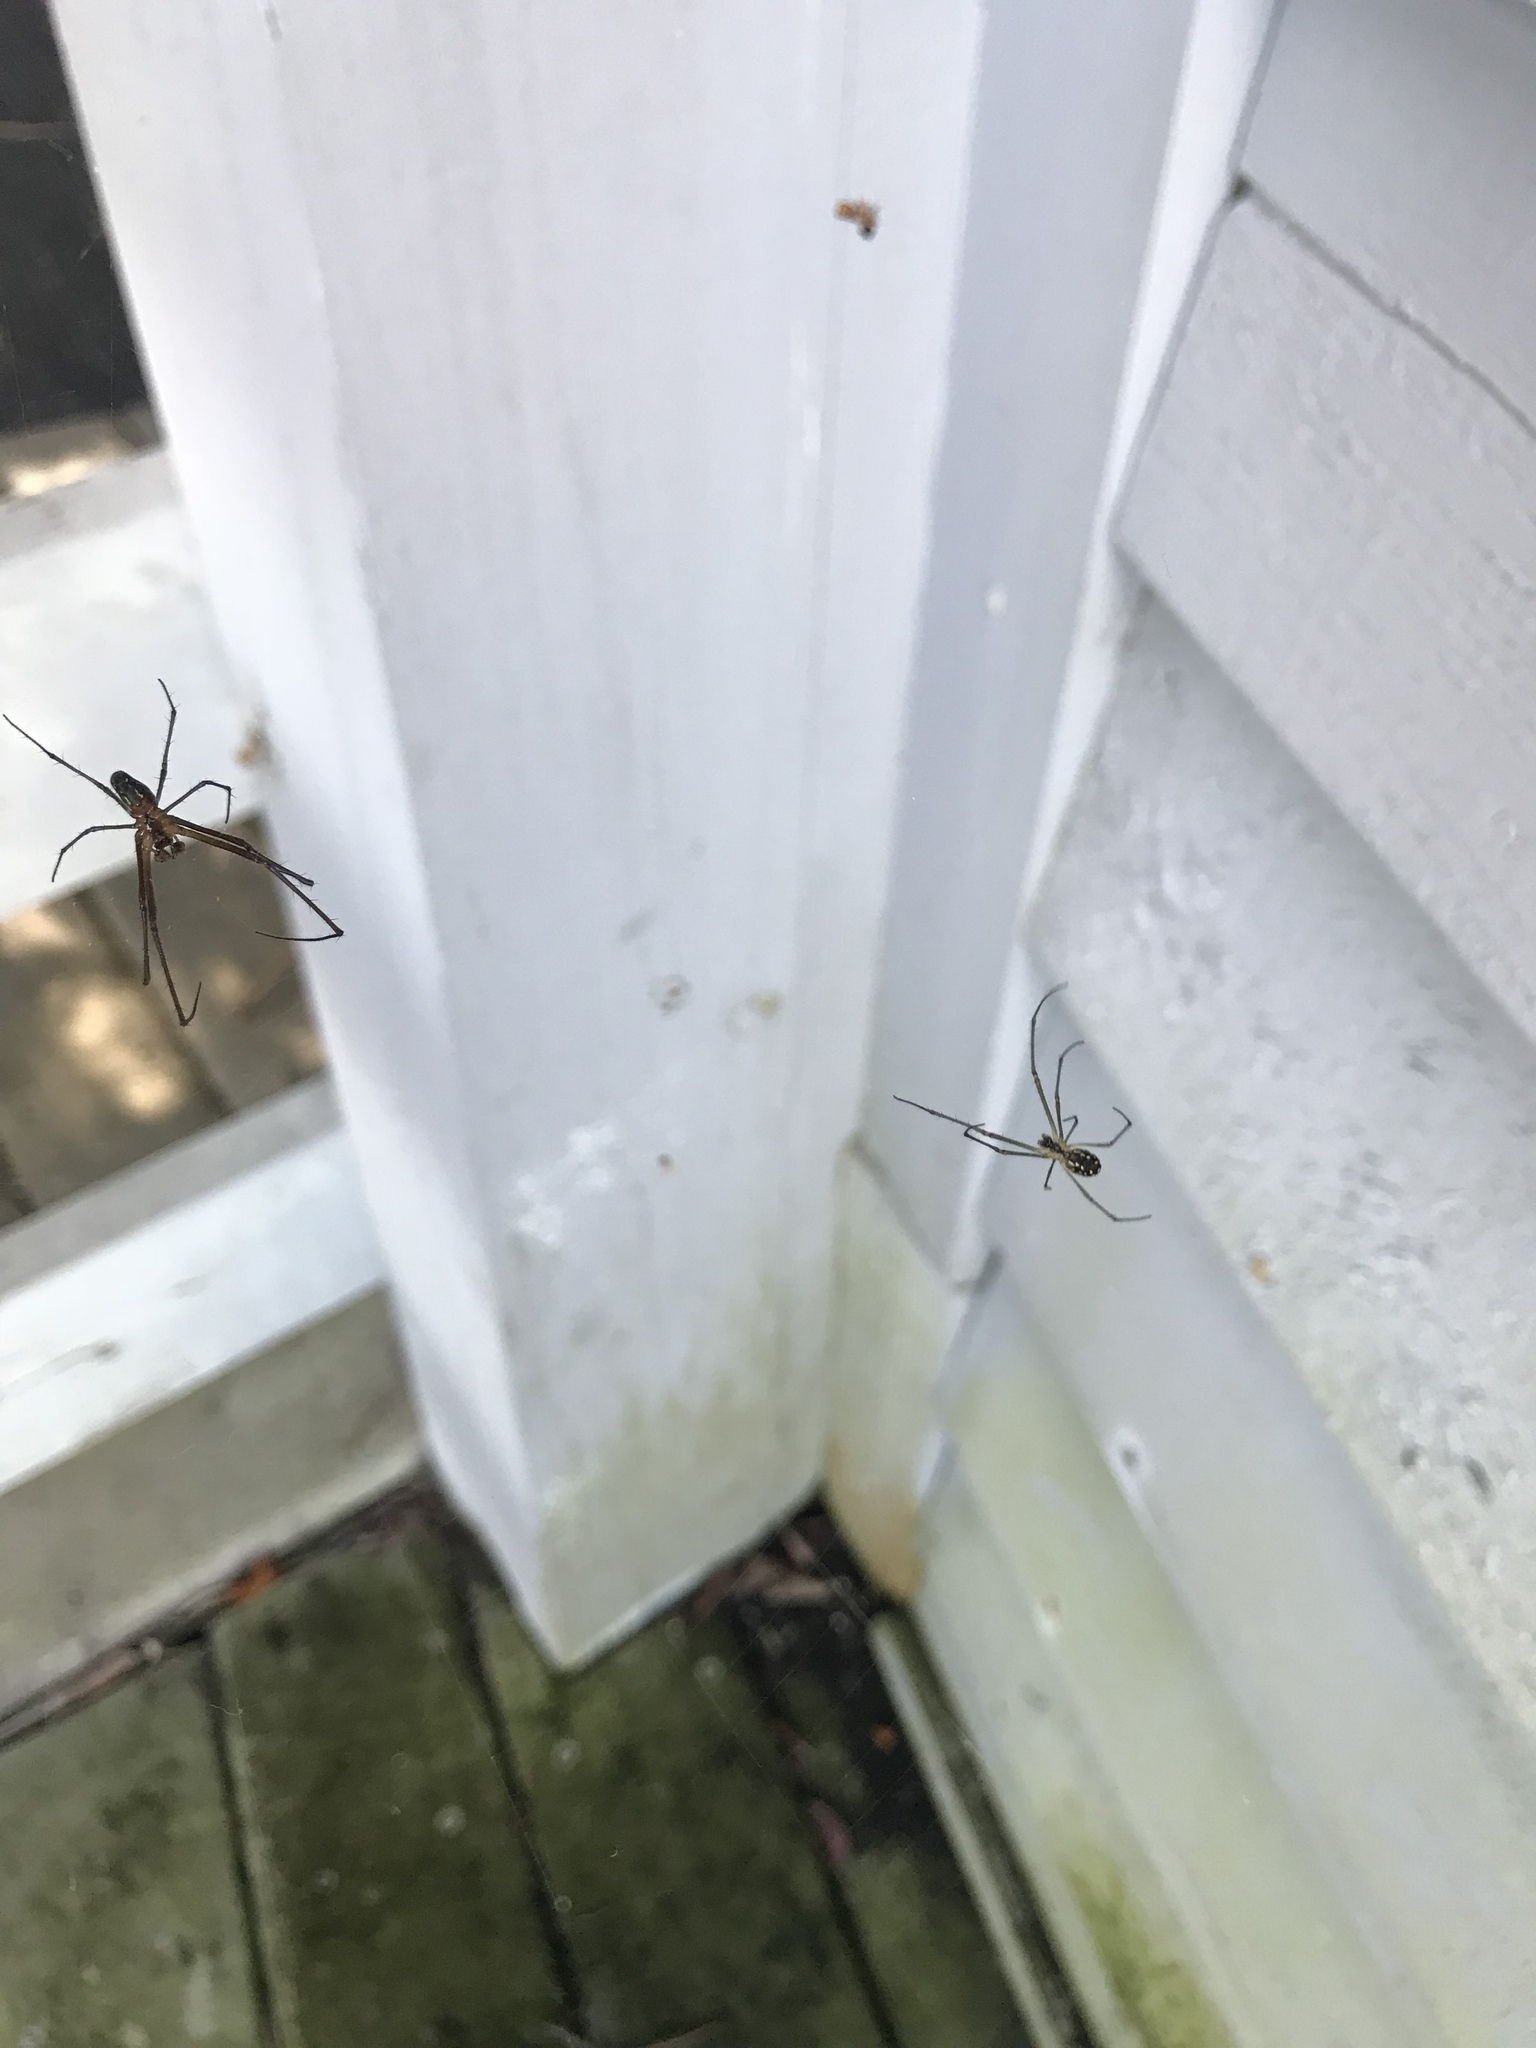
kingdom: Animalia
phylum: Arthropoda
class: Arachnida
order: Araneae
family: Tetragnathidae
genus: Leucauge
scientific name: Leucauge argyra
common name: Longjawed orb weavers
